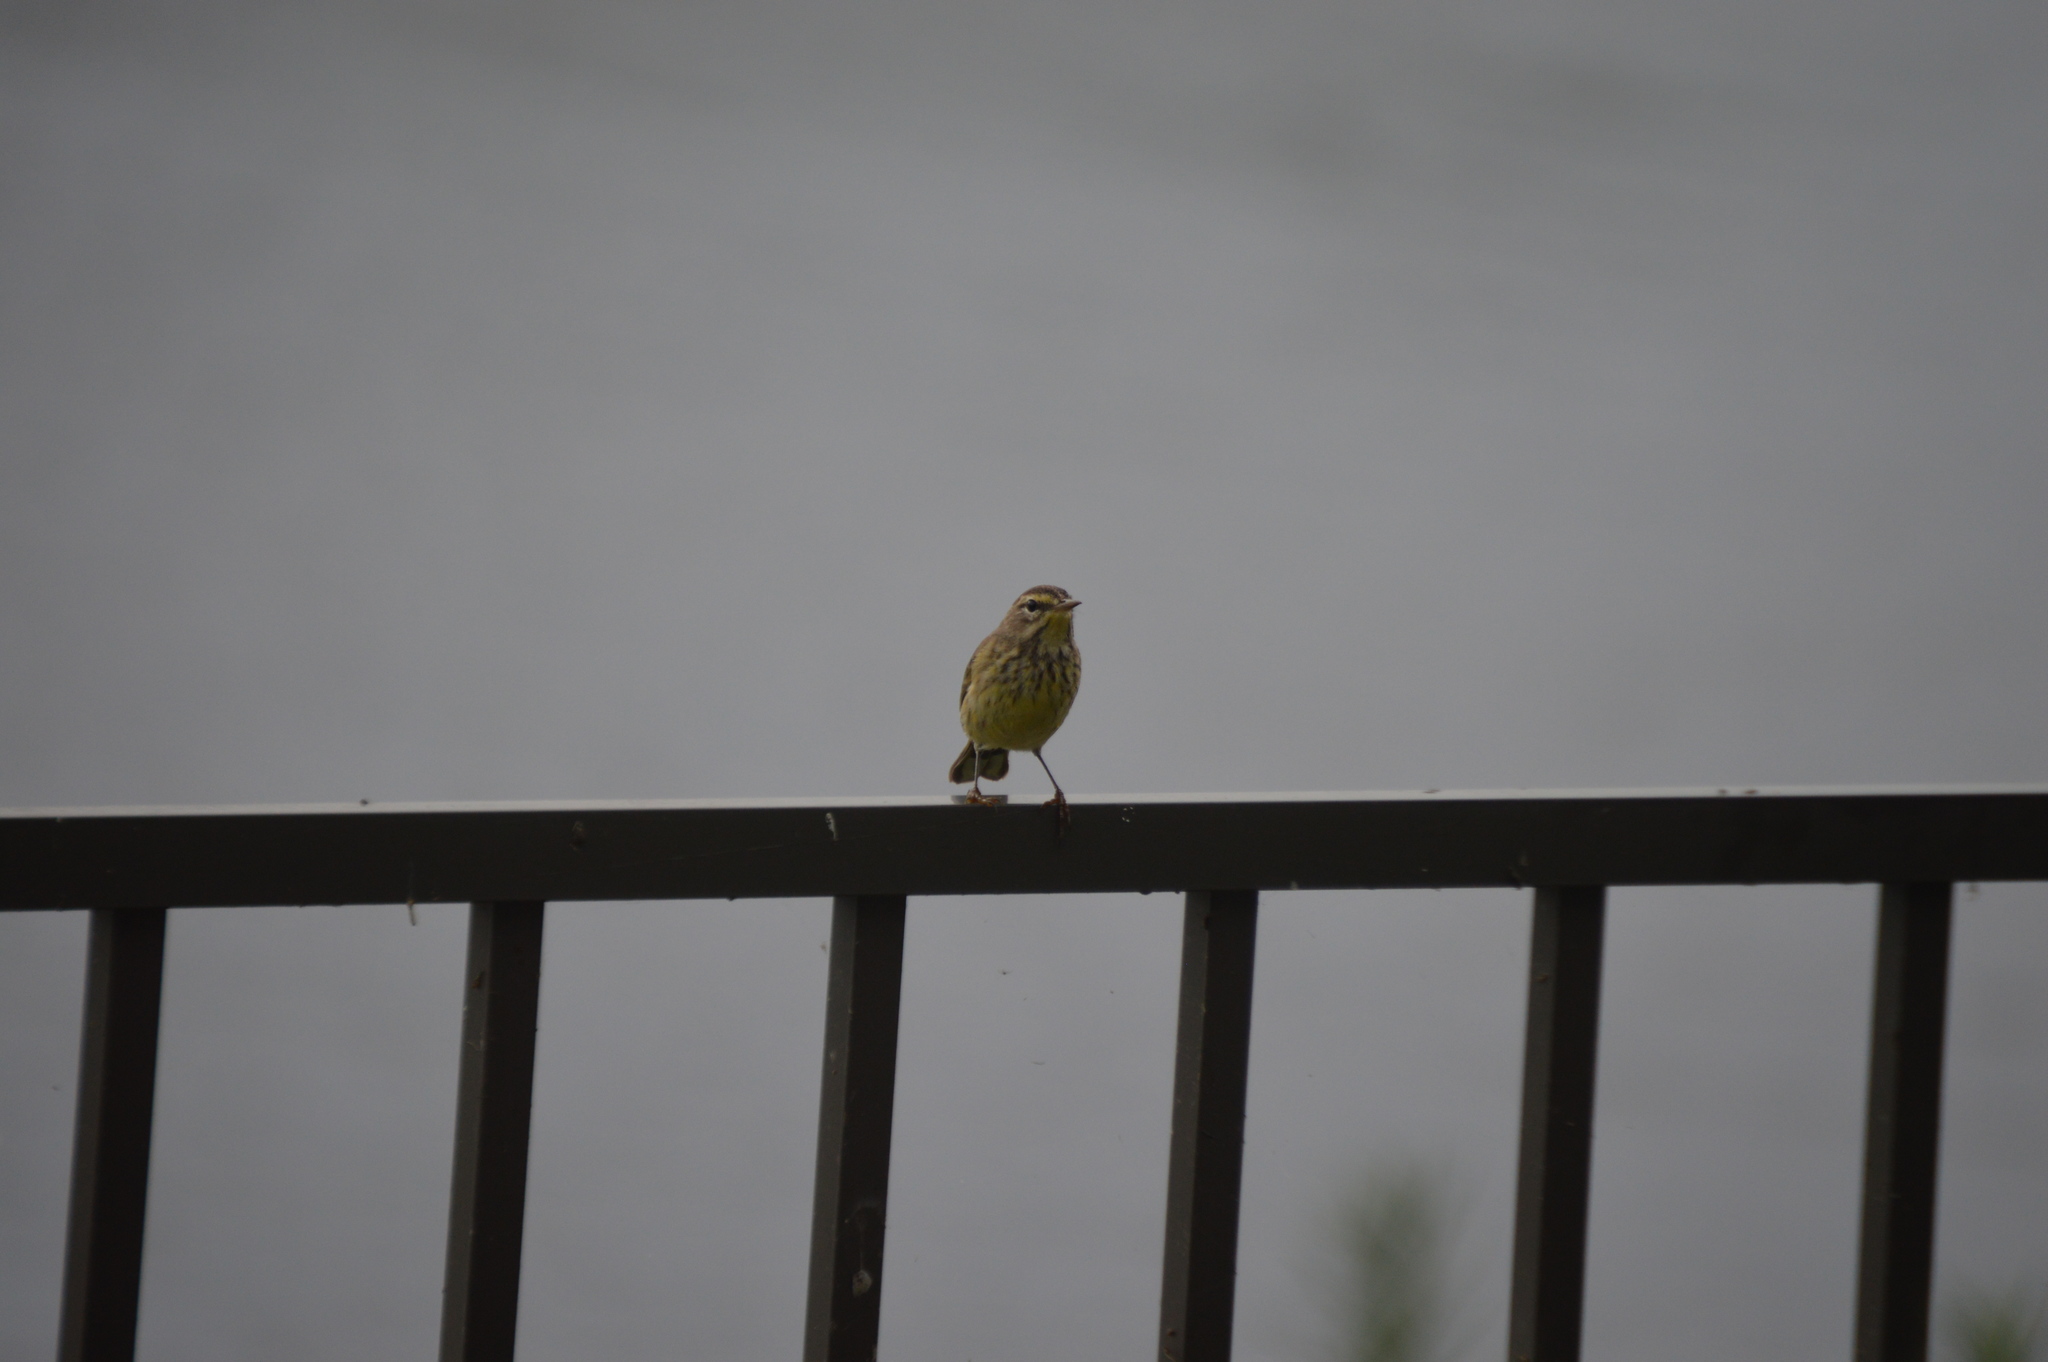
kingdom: Animalia
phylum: Chordata
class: Aves
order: Passeriformes
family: Parulidae
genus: Setophaga
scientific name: Setophaga palmarum
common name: Palm warbler
